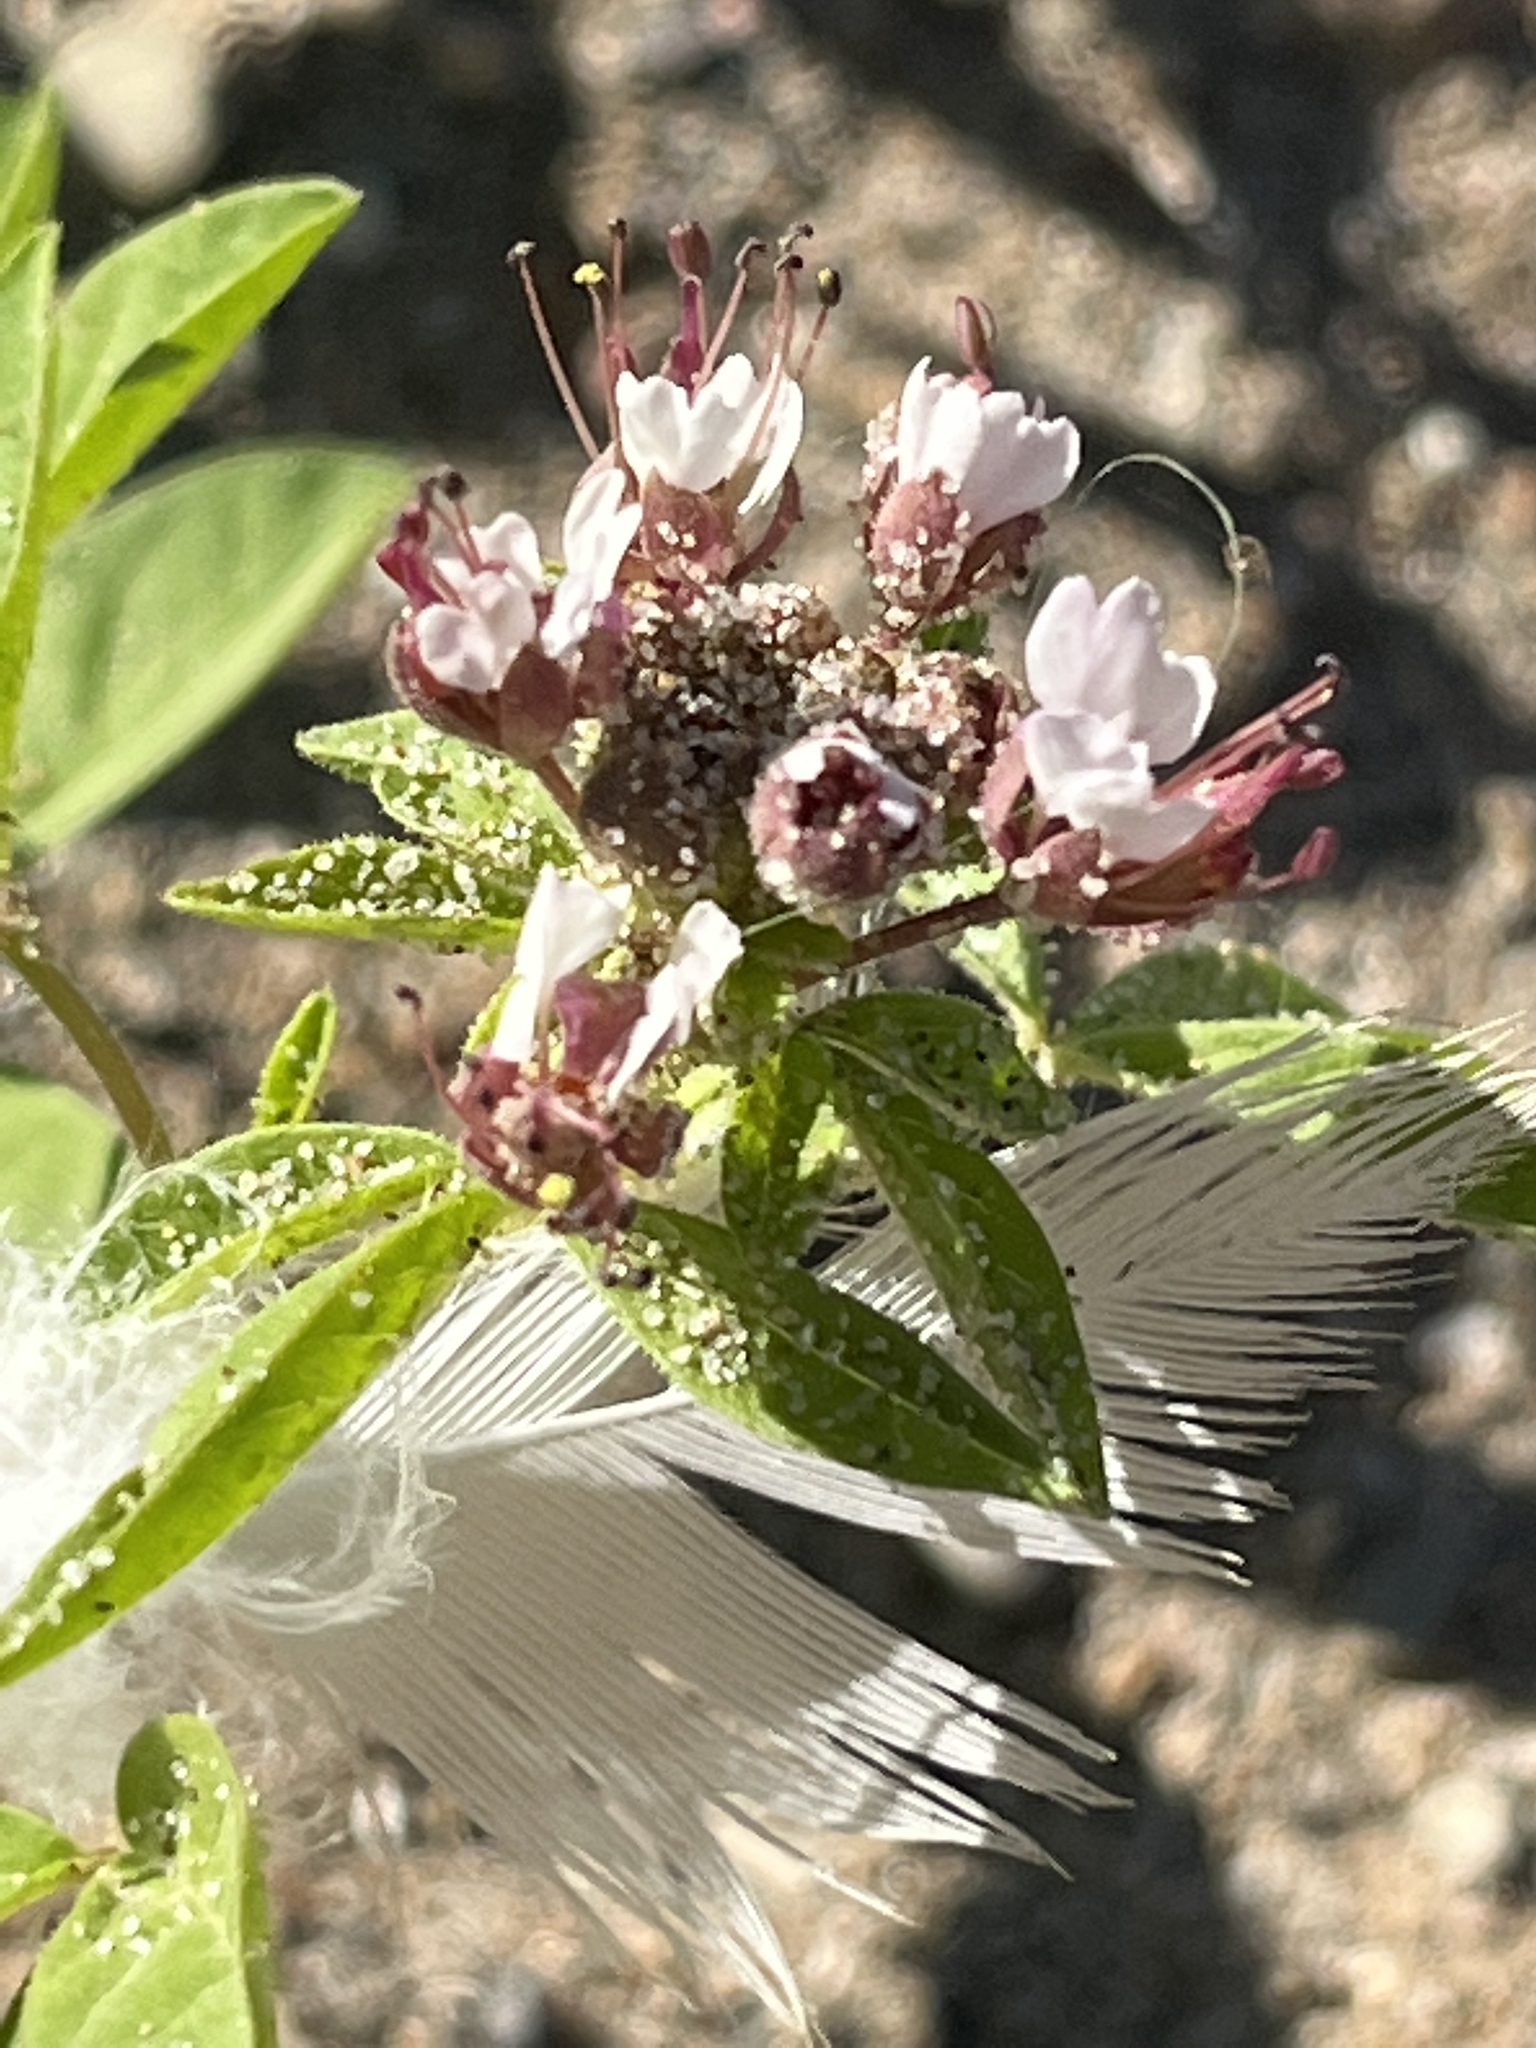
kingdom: Plantae
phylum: Tracheophyta
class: Magnoliopsida
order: Brassicales
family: Cleomaceae
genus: Polanisia
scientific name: Polanisia dodecandra
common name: Clammyweed
